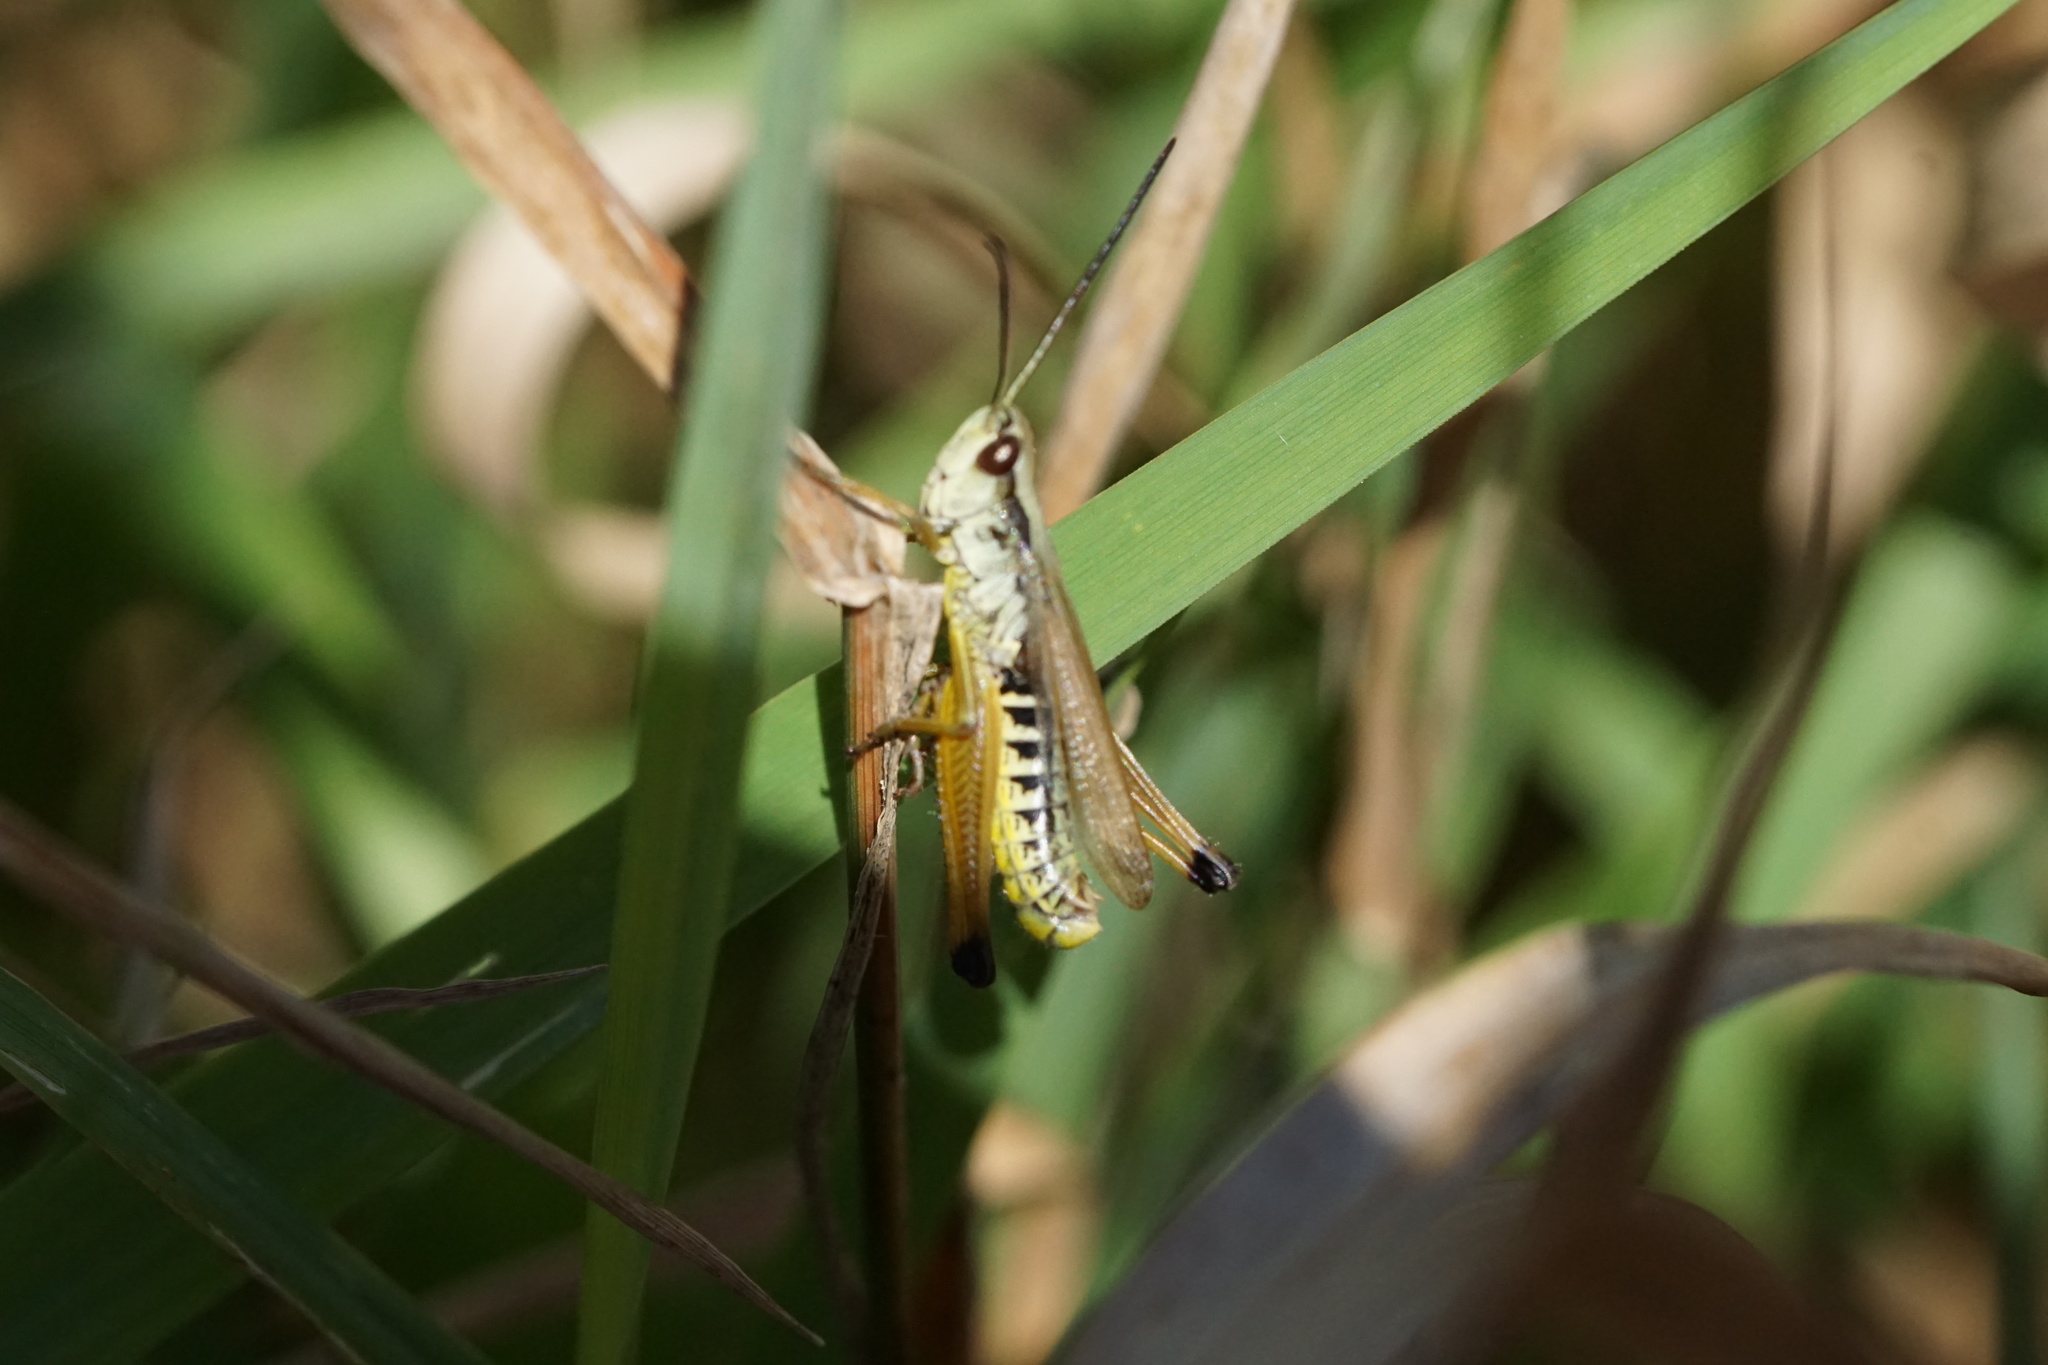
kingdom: Animalia
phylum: Arthropoda
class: Insecta
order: Orthoptera
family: Acrididae
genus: Pseudochorthippus
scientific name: Pseudochorthippus curtipennis
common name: Marsh meadow grasshopper
